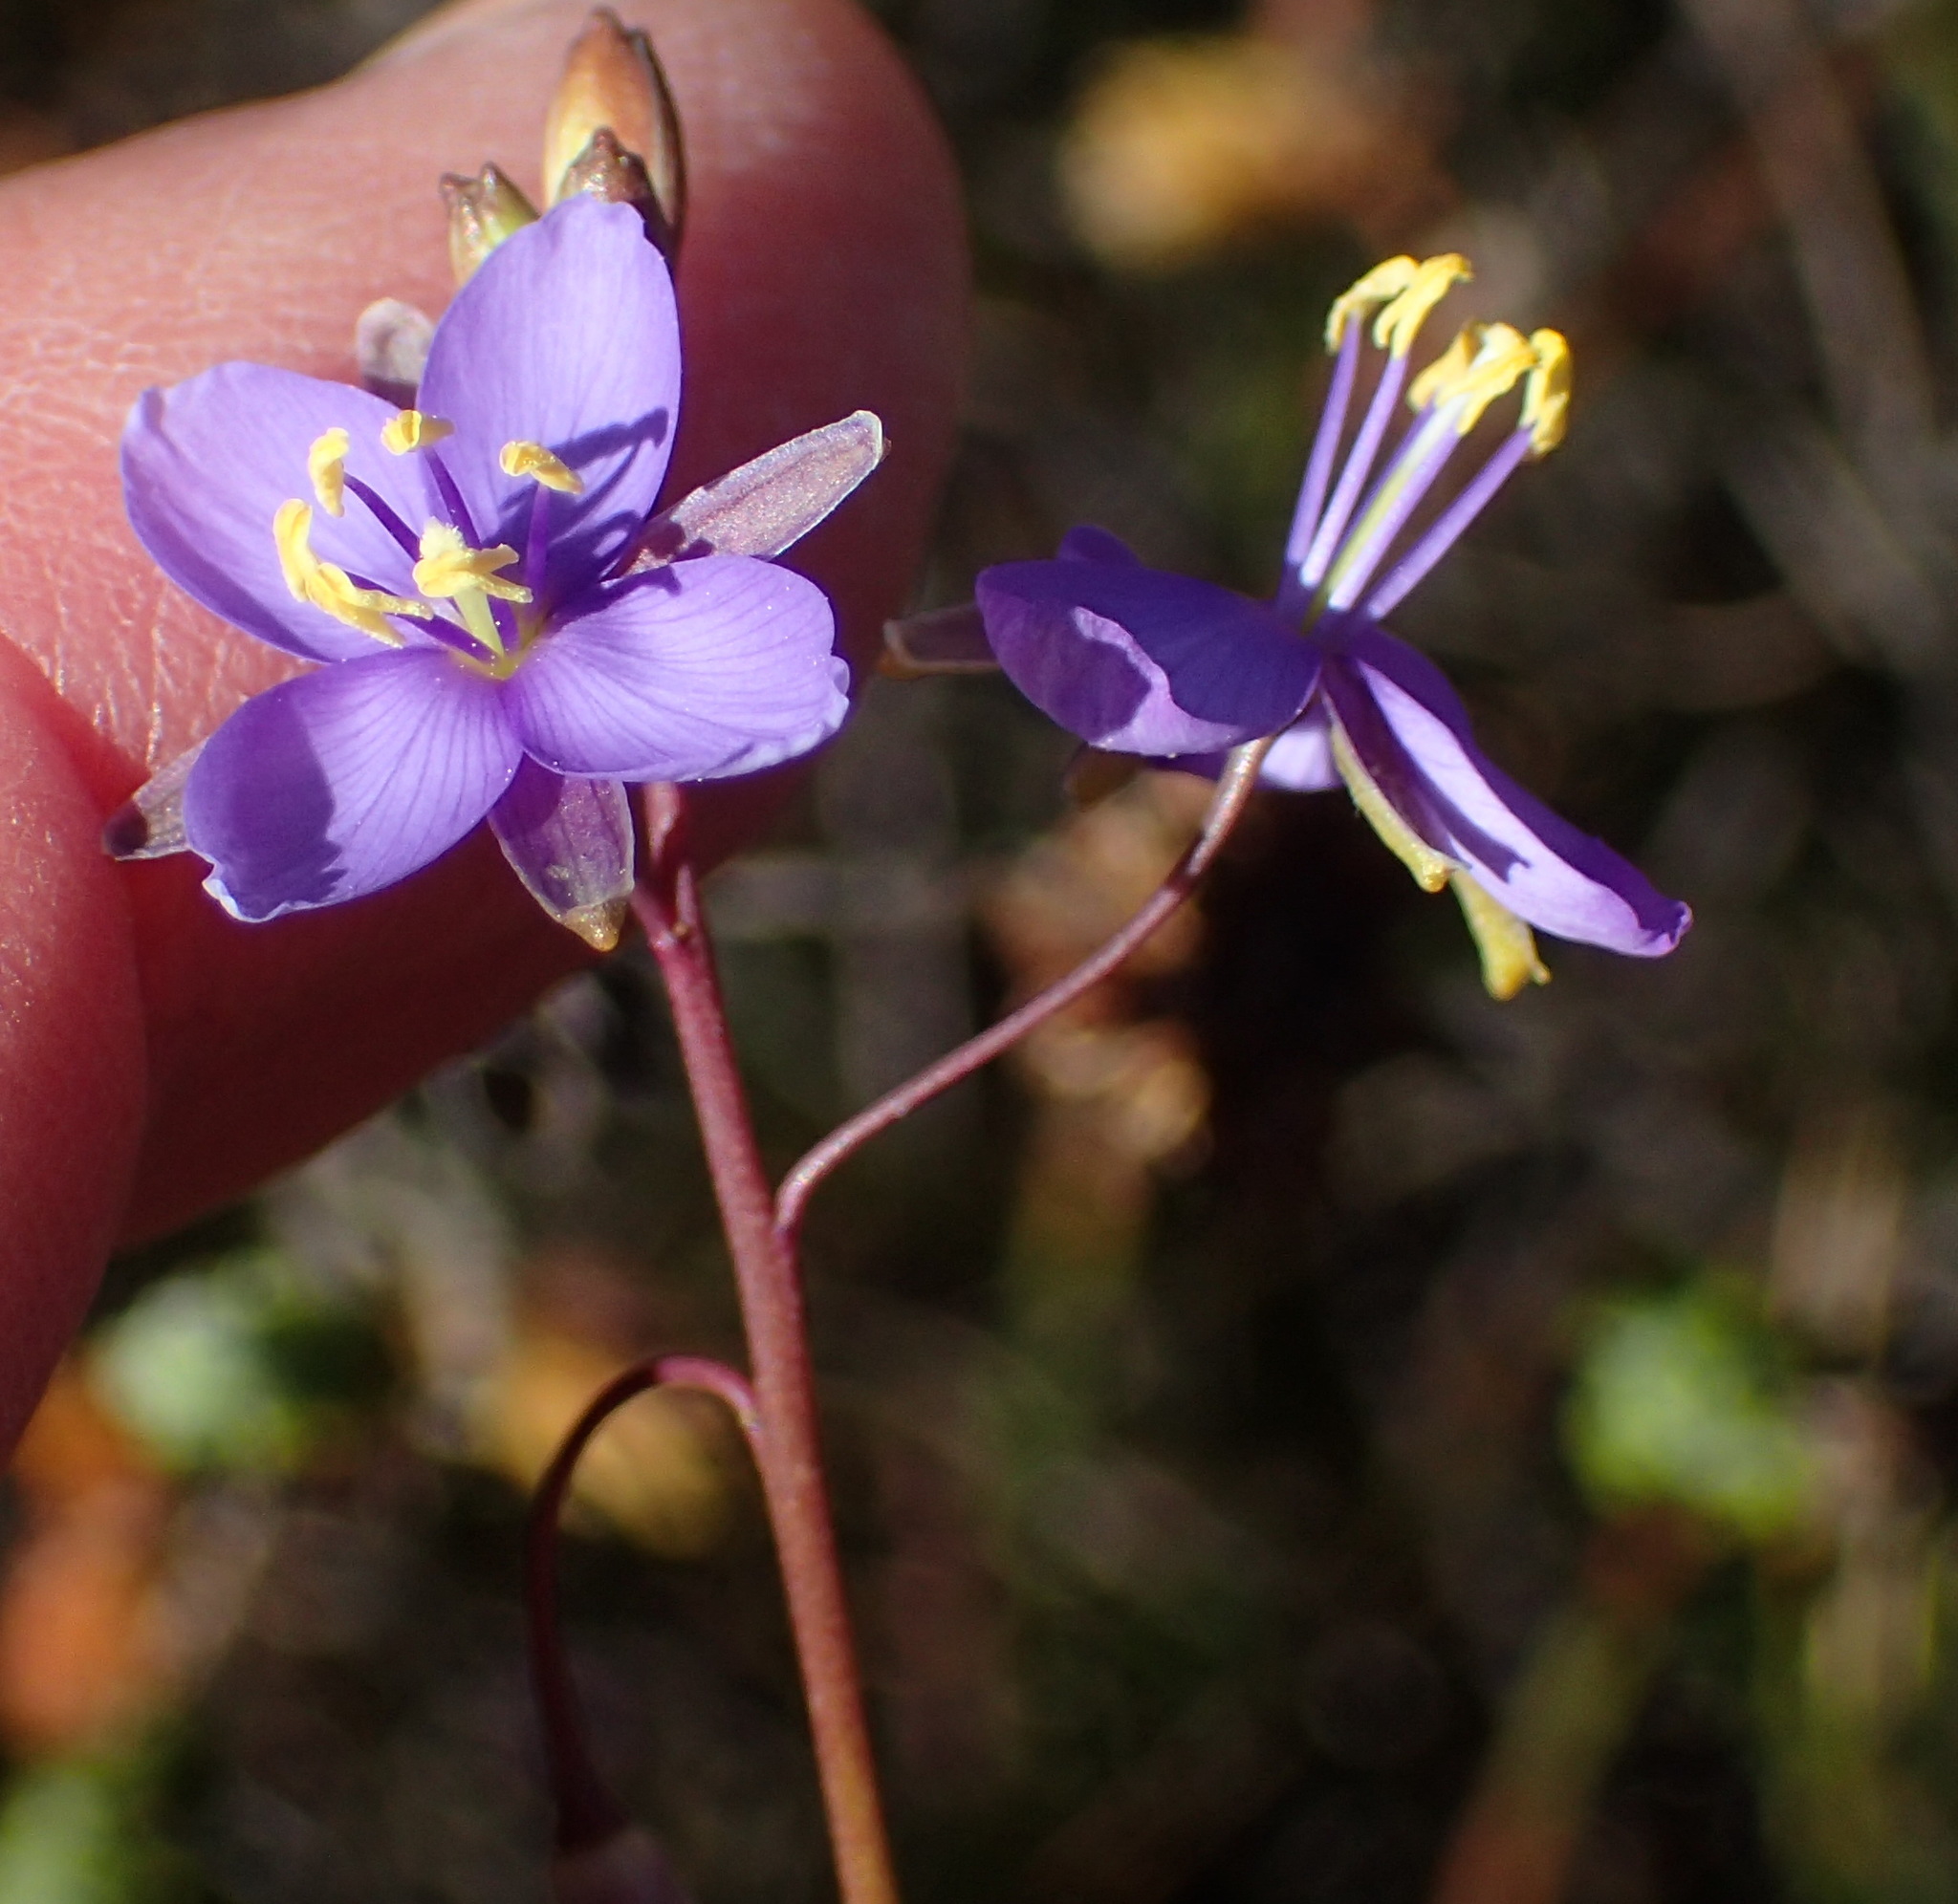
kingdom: Plantae
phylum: Tracheophyta
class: Magnoliopsida
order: Brassicales
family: Brassicaceae
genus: Heliophila
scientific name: Heliophila subulata
